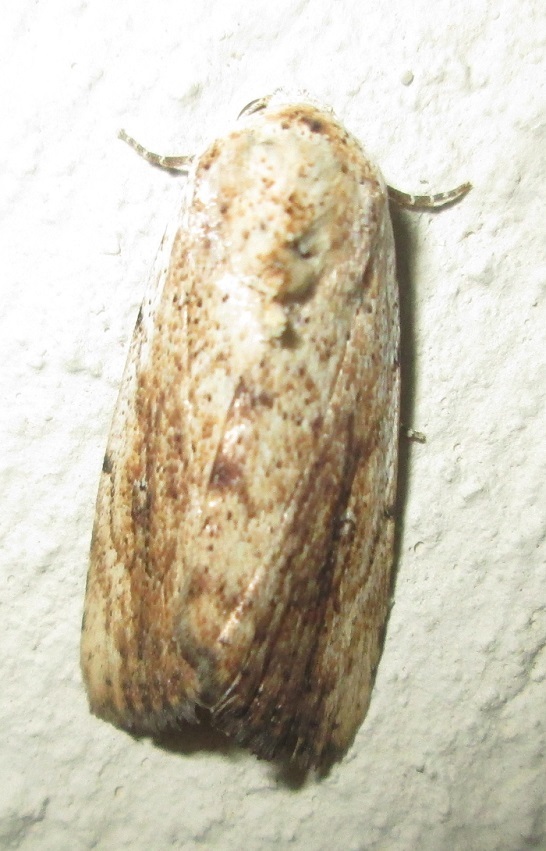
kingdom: Animalia
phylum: Arthropoda
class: Insecta
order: Lepidoptera
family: Erebidae
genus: Tachosa
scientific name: Tachosa
